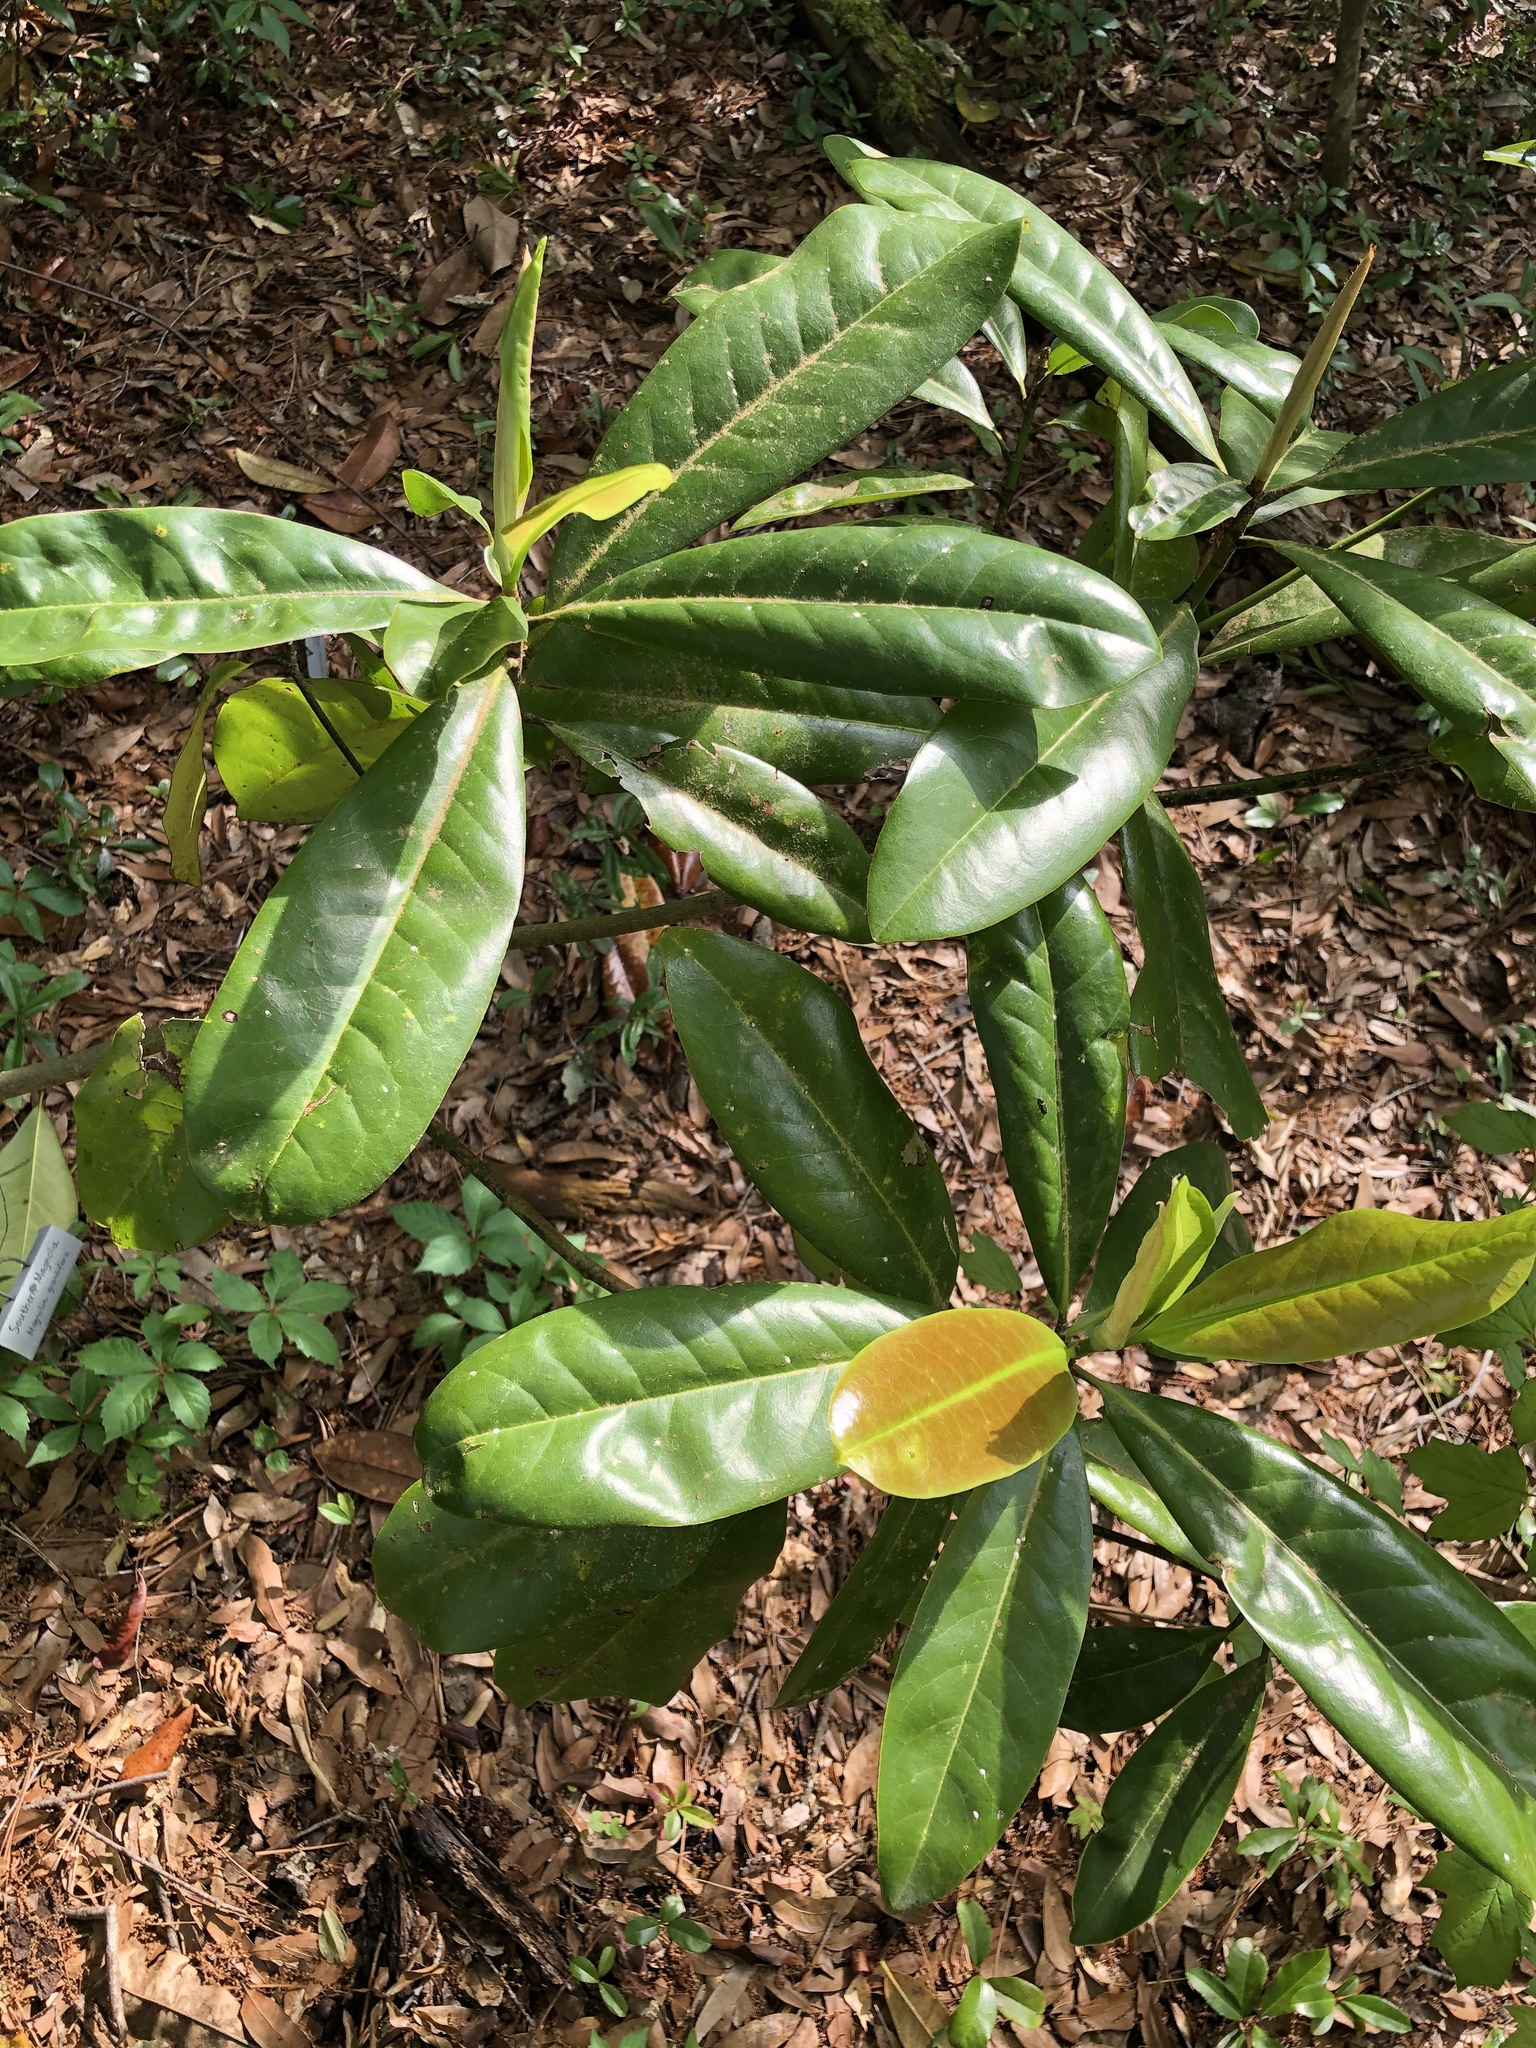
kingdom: Plantae
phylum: Tracheophyta
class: Magnoliopsida
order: Magnoliales
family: Magnoliaceae
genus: Magnolia
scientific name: Magnolia grandiflora
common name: Southern magnolia
